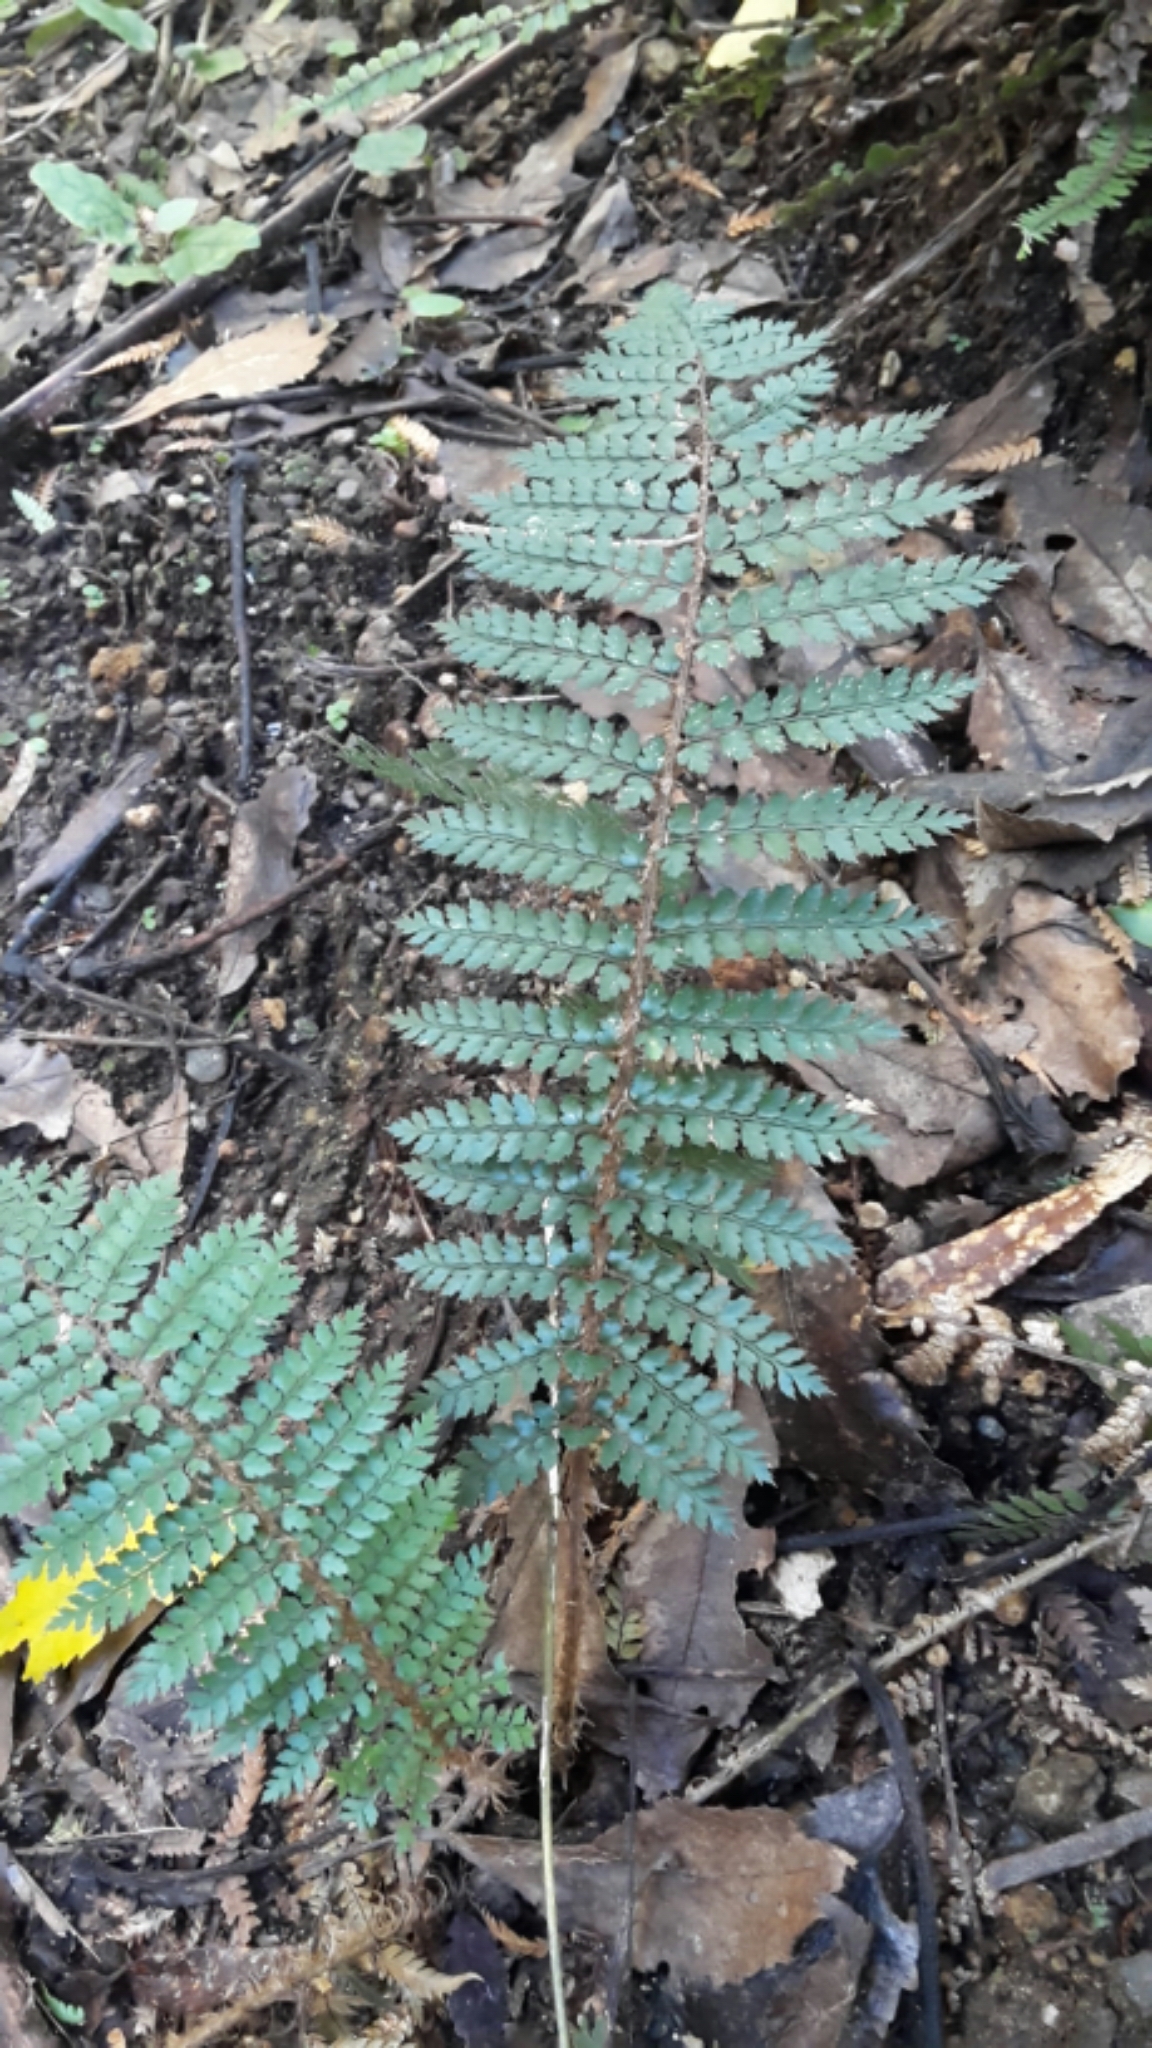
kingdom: Plantae
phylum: Tracheophyta
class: Polypodiopsida
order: Polypodiales
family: Dryopteridaceae
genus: Polystichum
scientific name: Polystichum vestitum
